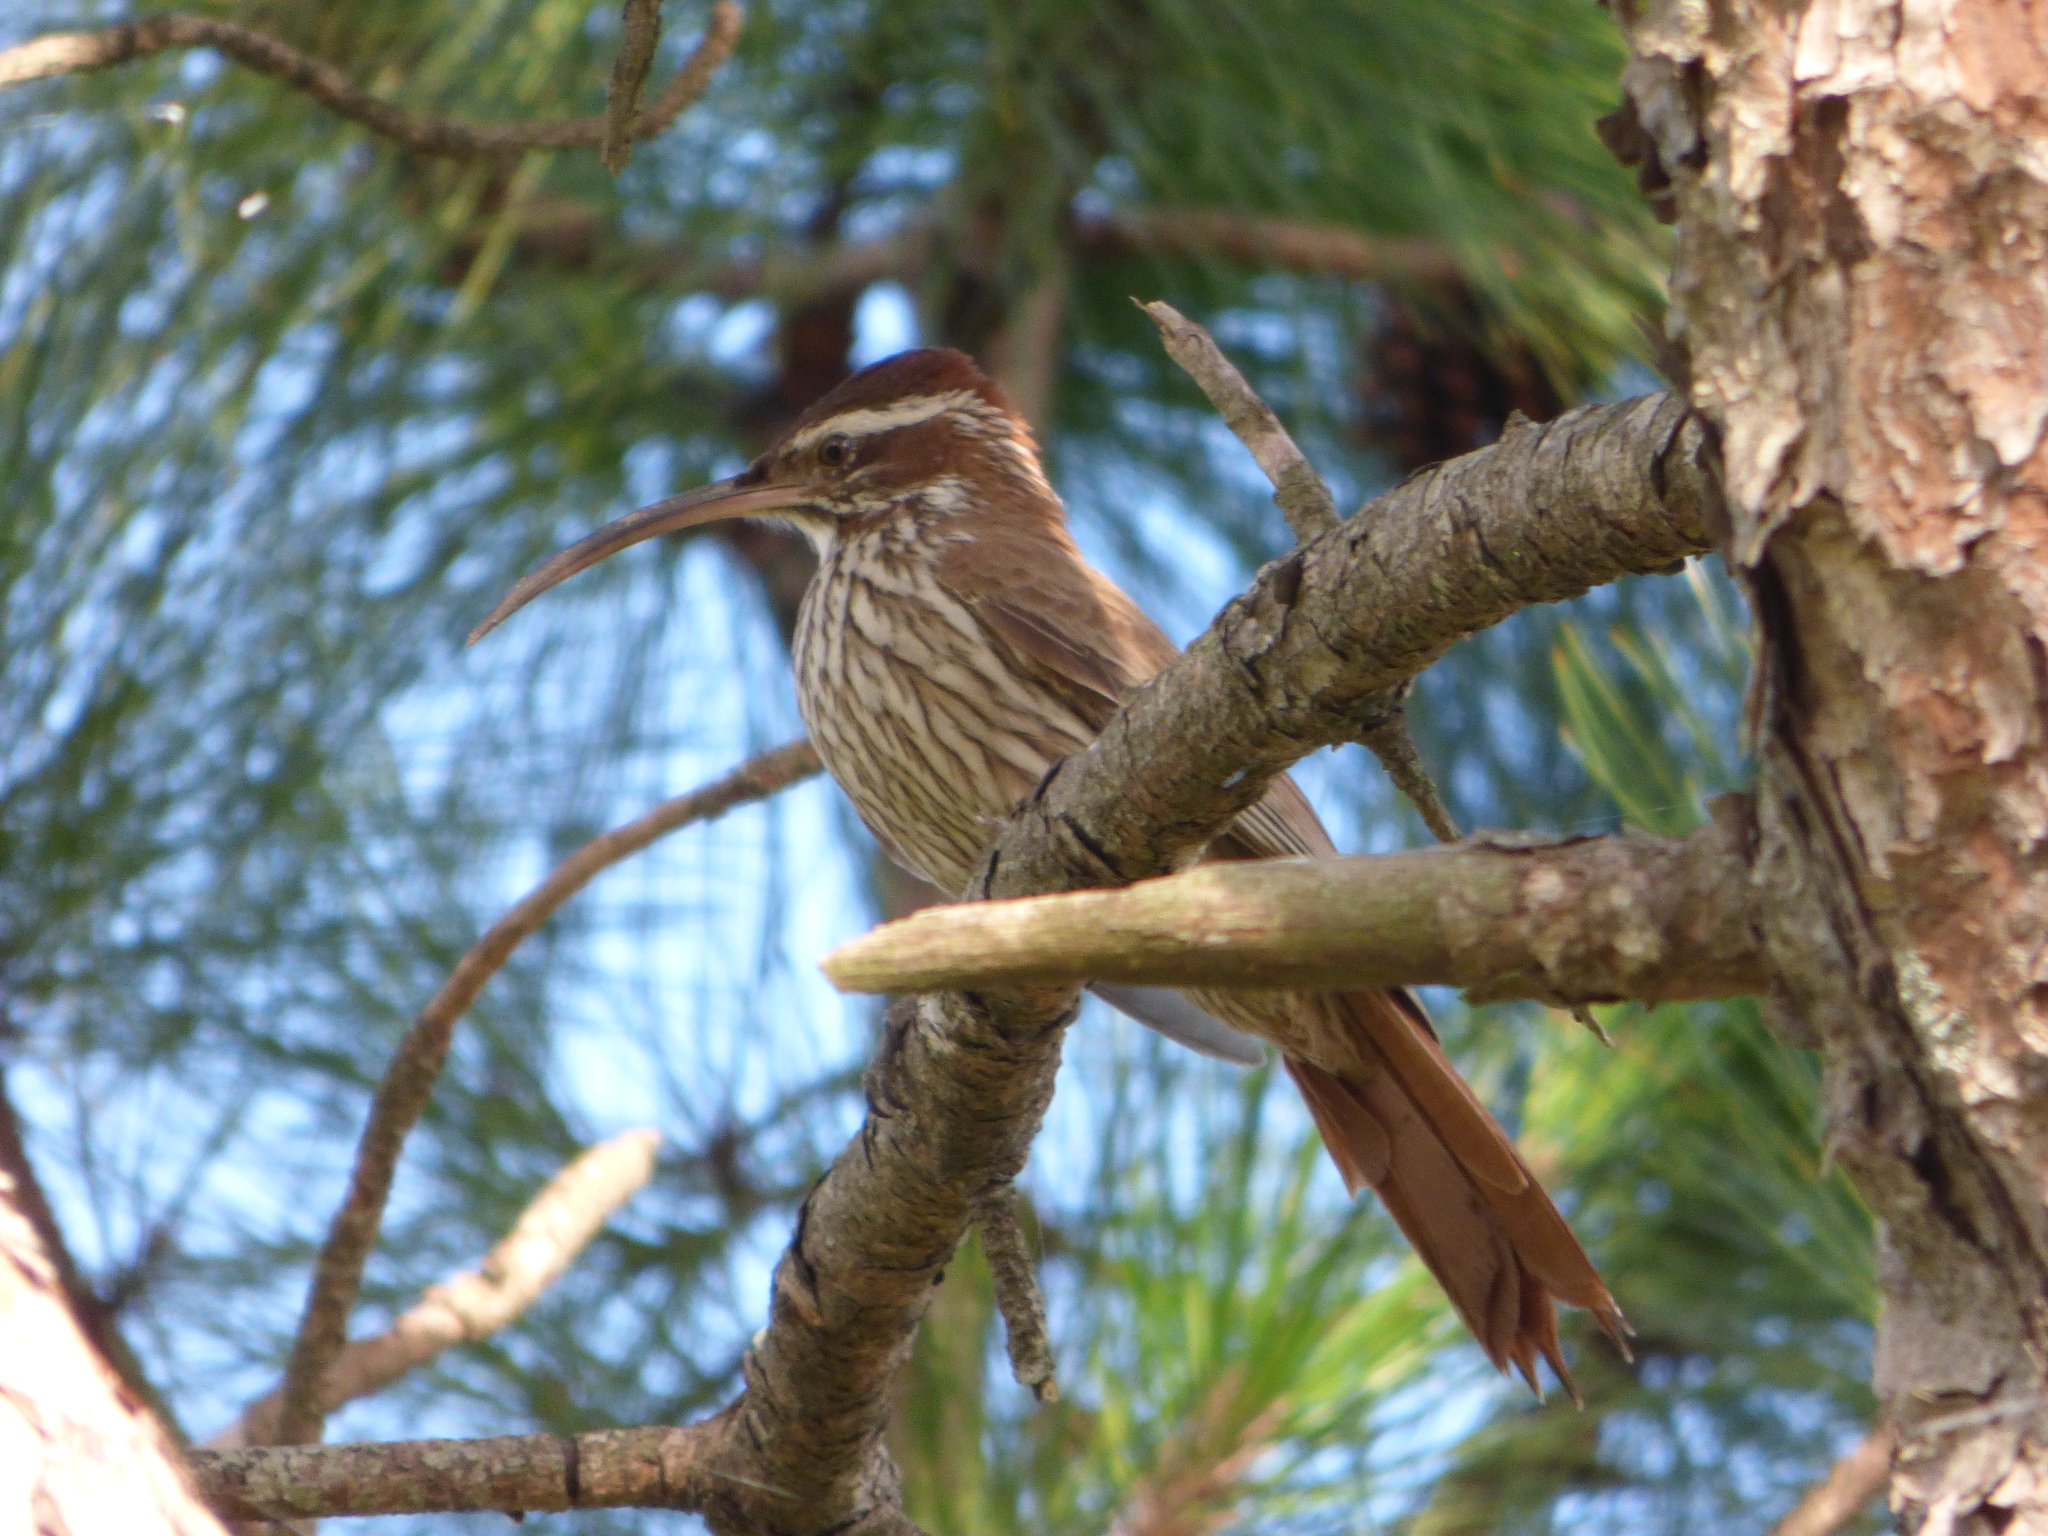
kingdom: Animalia
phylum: Chordata
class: Aves
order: Passeriformes
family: Furnariidae
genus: Drymornis
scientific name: Drymornis bridgesii
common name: Scimitar-billed woodcreeper
